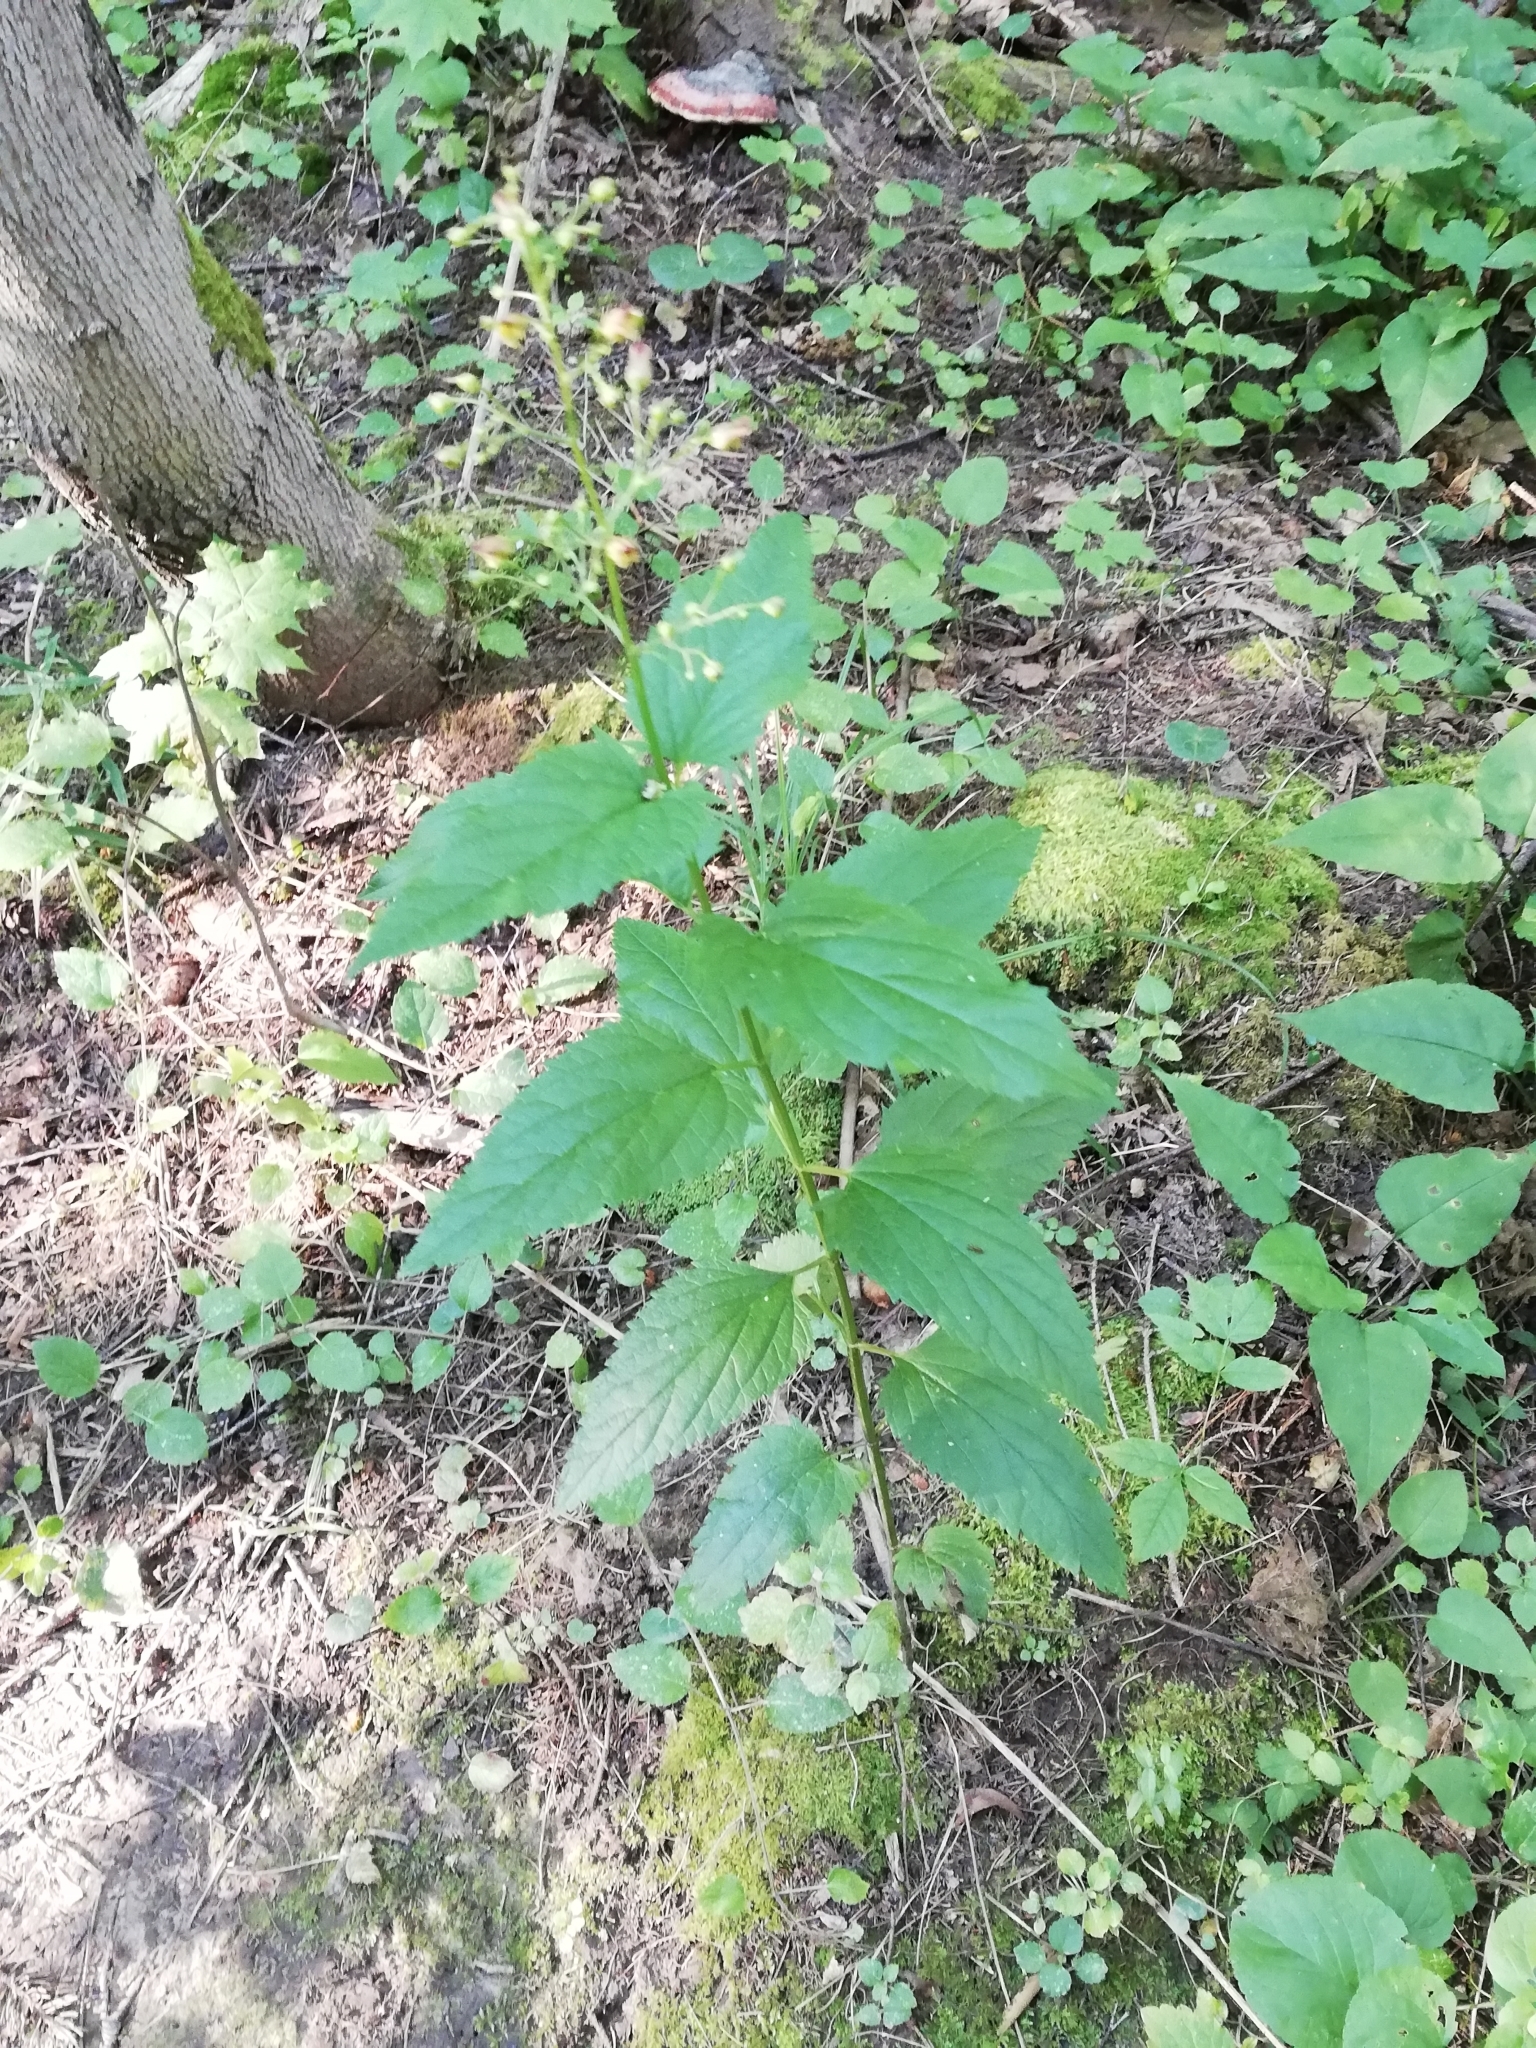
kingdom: Plantae
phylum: Tracheophyta
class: Magnoliopsida
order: Lamiales
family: Scrophulariaceae
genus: Scrophularia
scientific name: Scrophularia nodosa
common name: Common figwort
